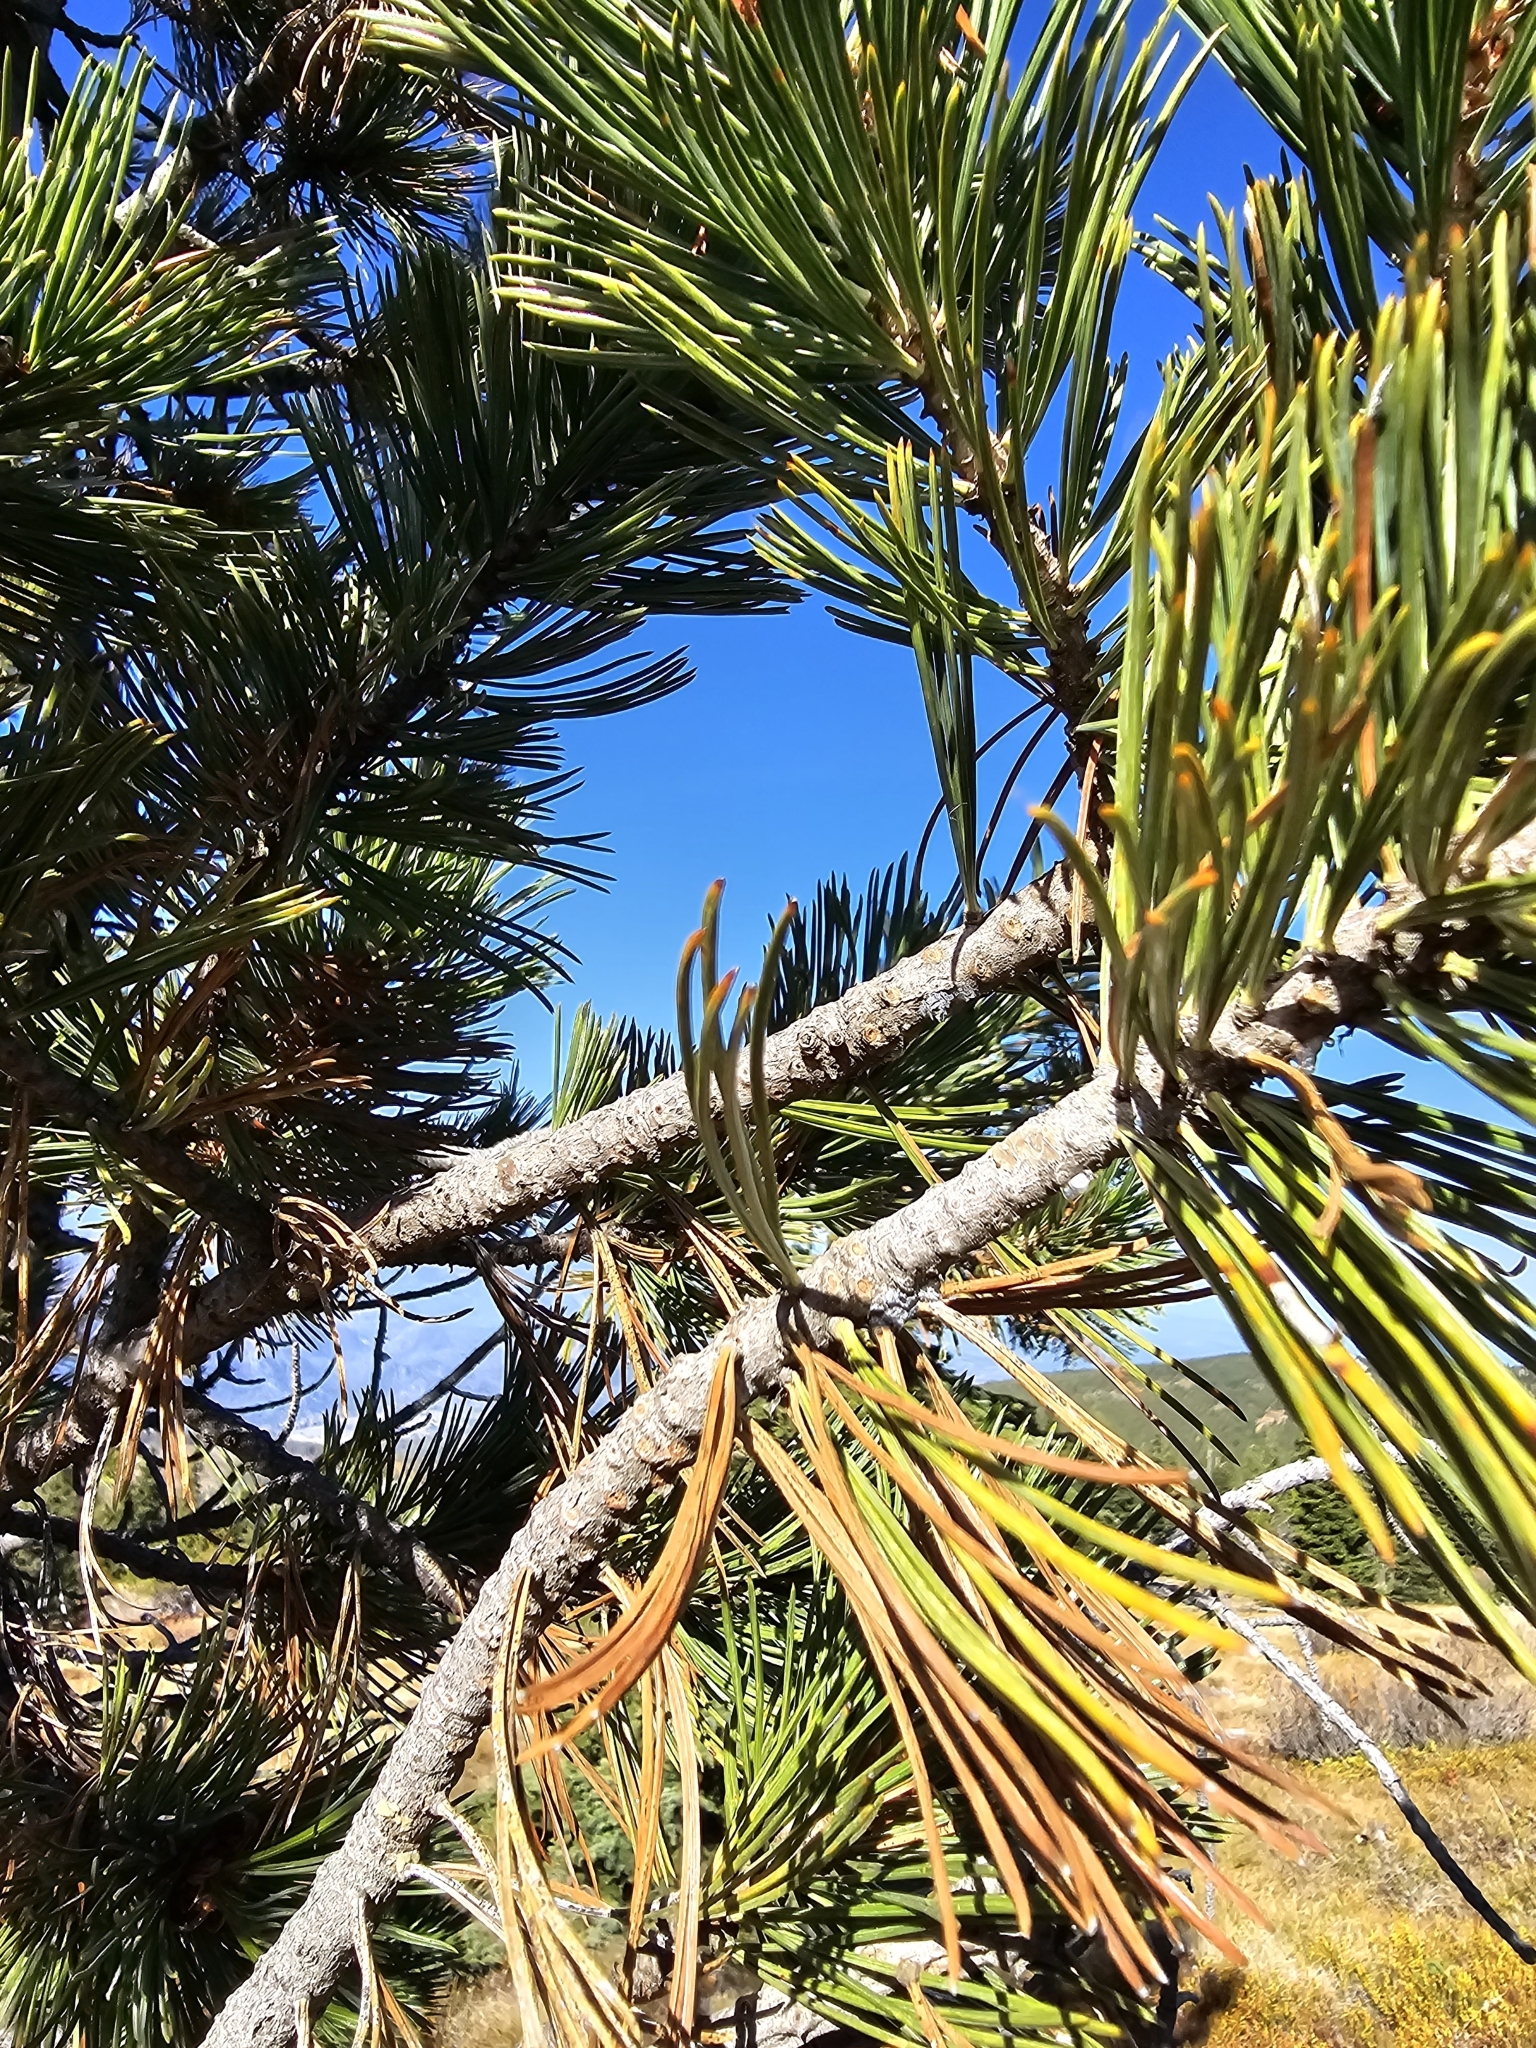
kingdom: Plantae
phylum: Tracheophyta
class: Pinopsida
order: Pinales
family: Pinaceae
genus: Pinus
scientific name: Pinus albicaulis
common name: Whitebark pine
